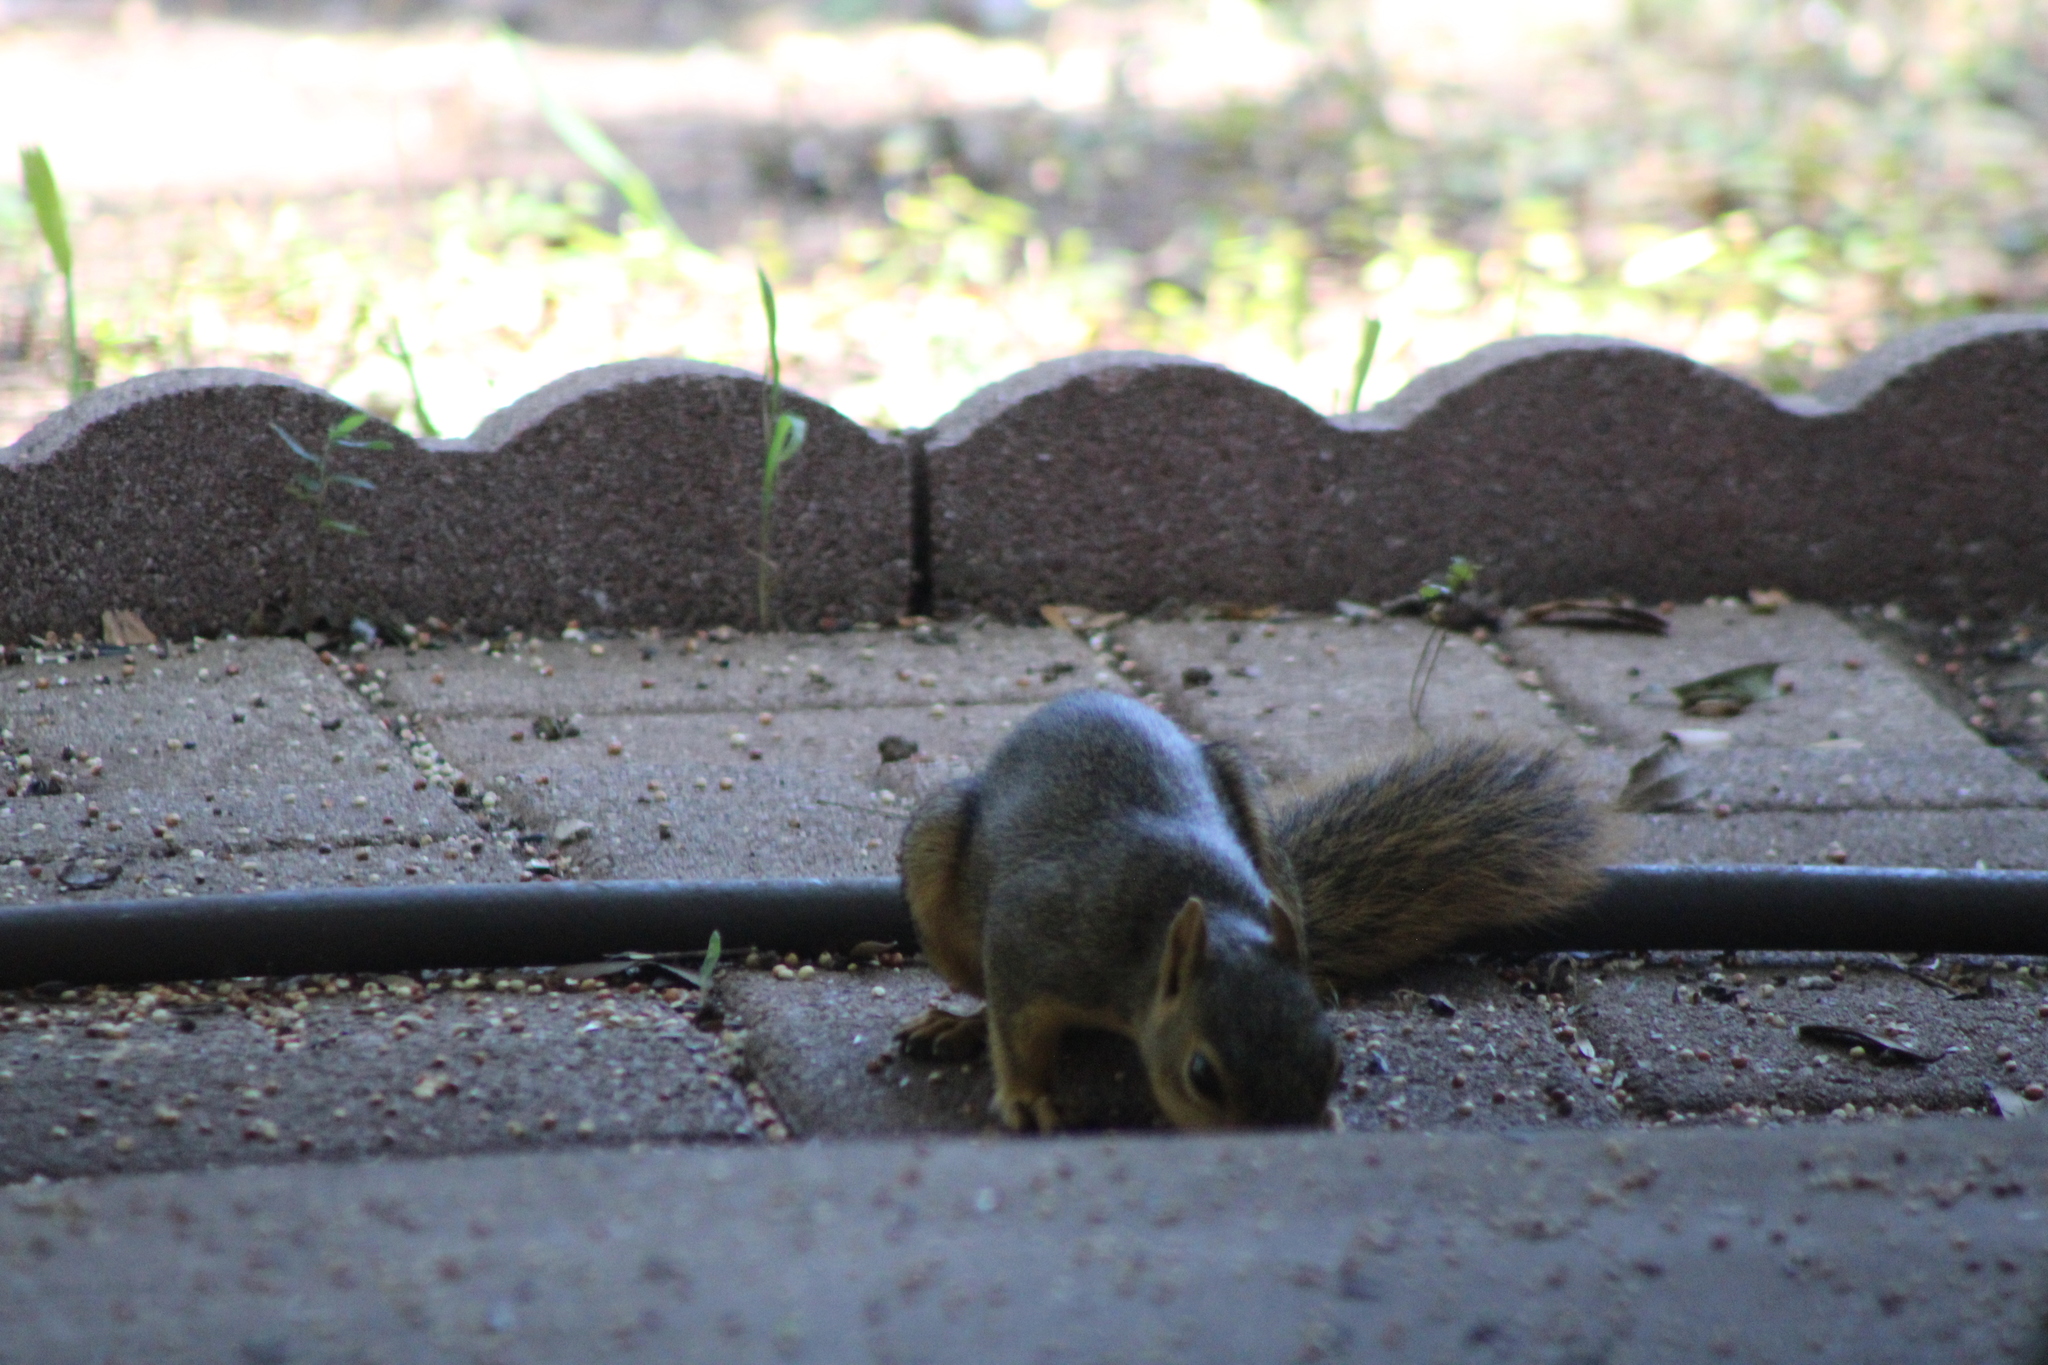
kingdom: Animalia
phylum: Chordata
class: Mammalia
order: Rodentia
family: Sciuridae
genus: Sciurus
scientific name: Sciurus niger
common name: Fox squirrel
